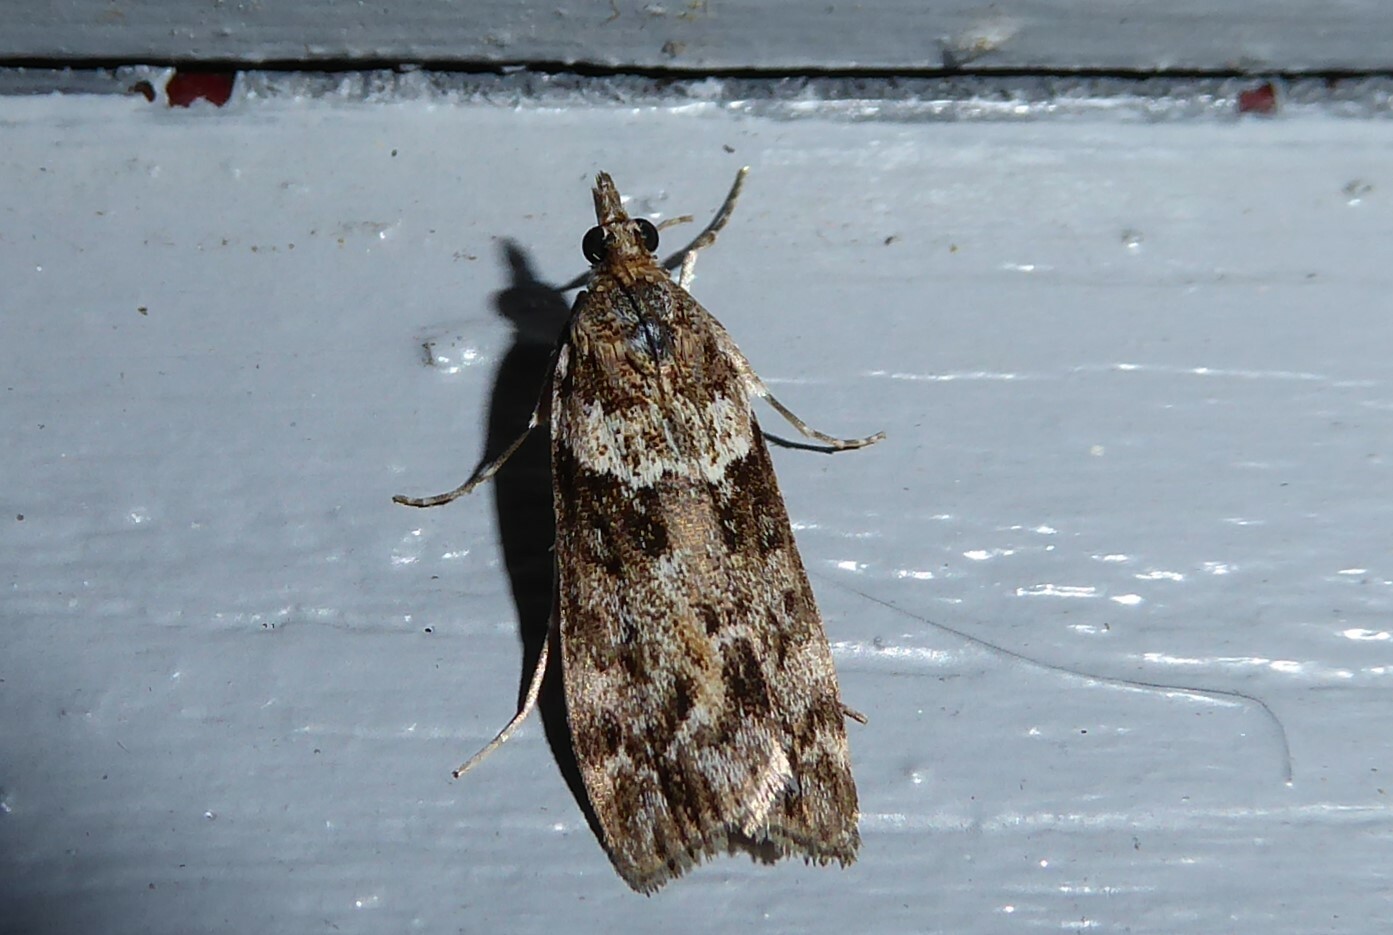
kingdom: Animalia
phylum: Arthropoda
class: Insecta
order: Lepidoptera
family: Crambidae
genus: Eudonia
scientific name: Eudonia submarginalis
